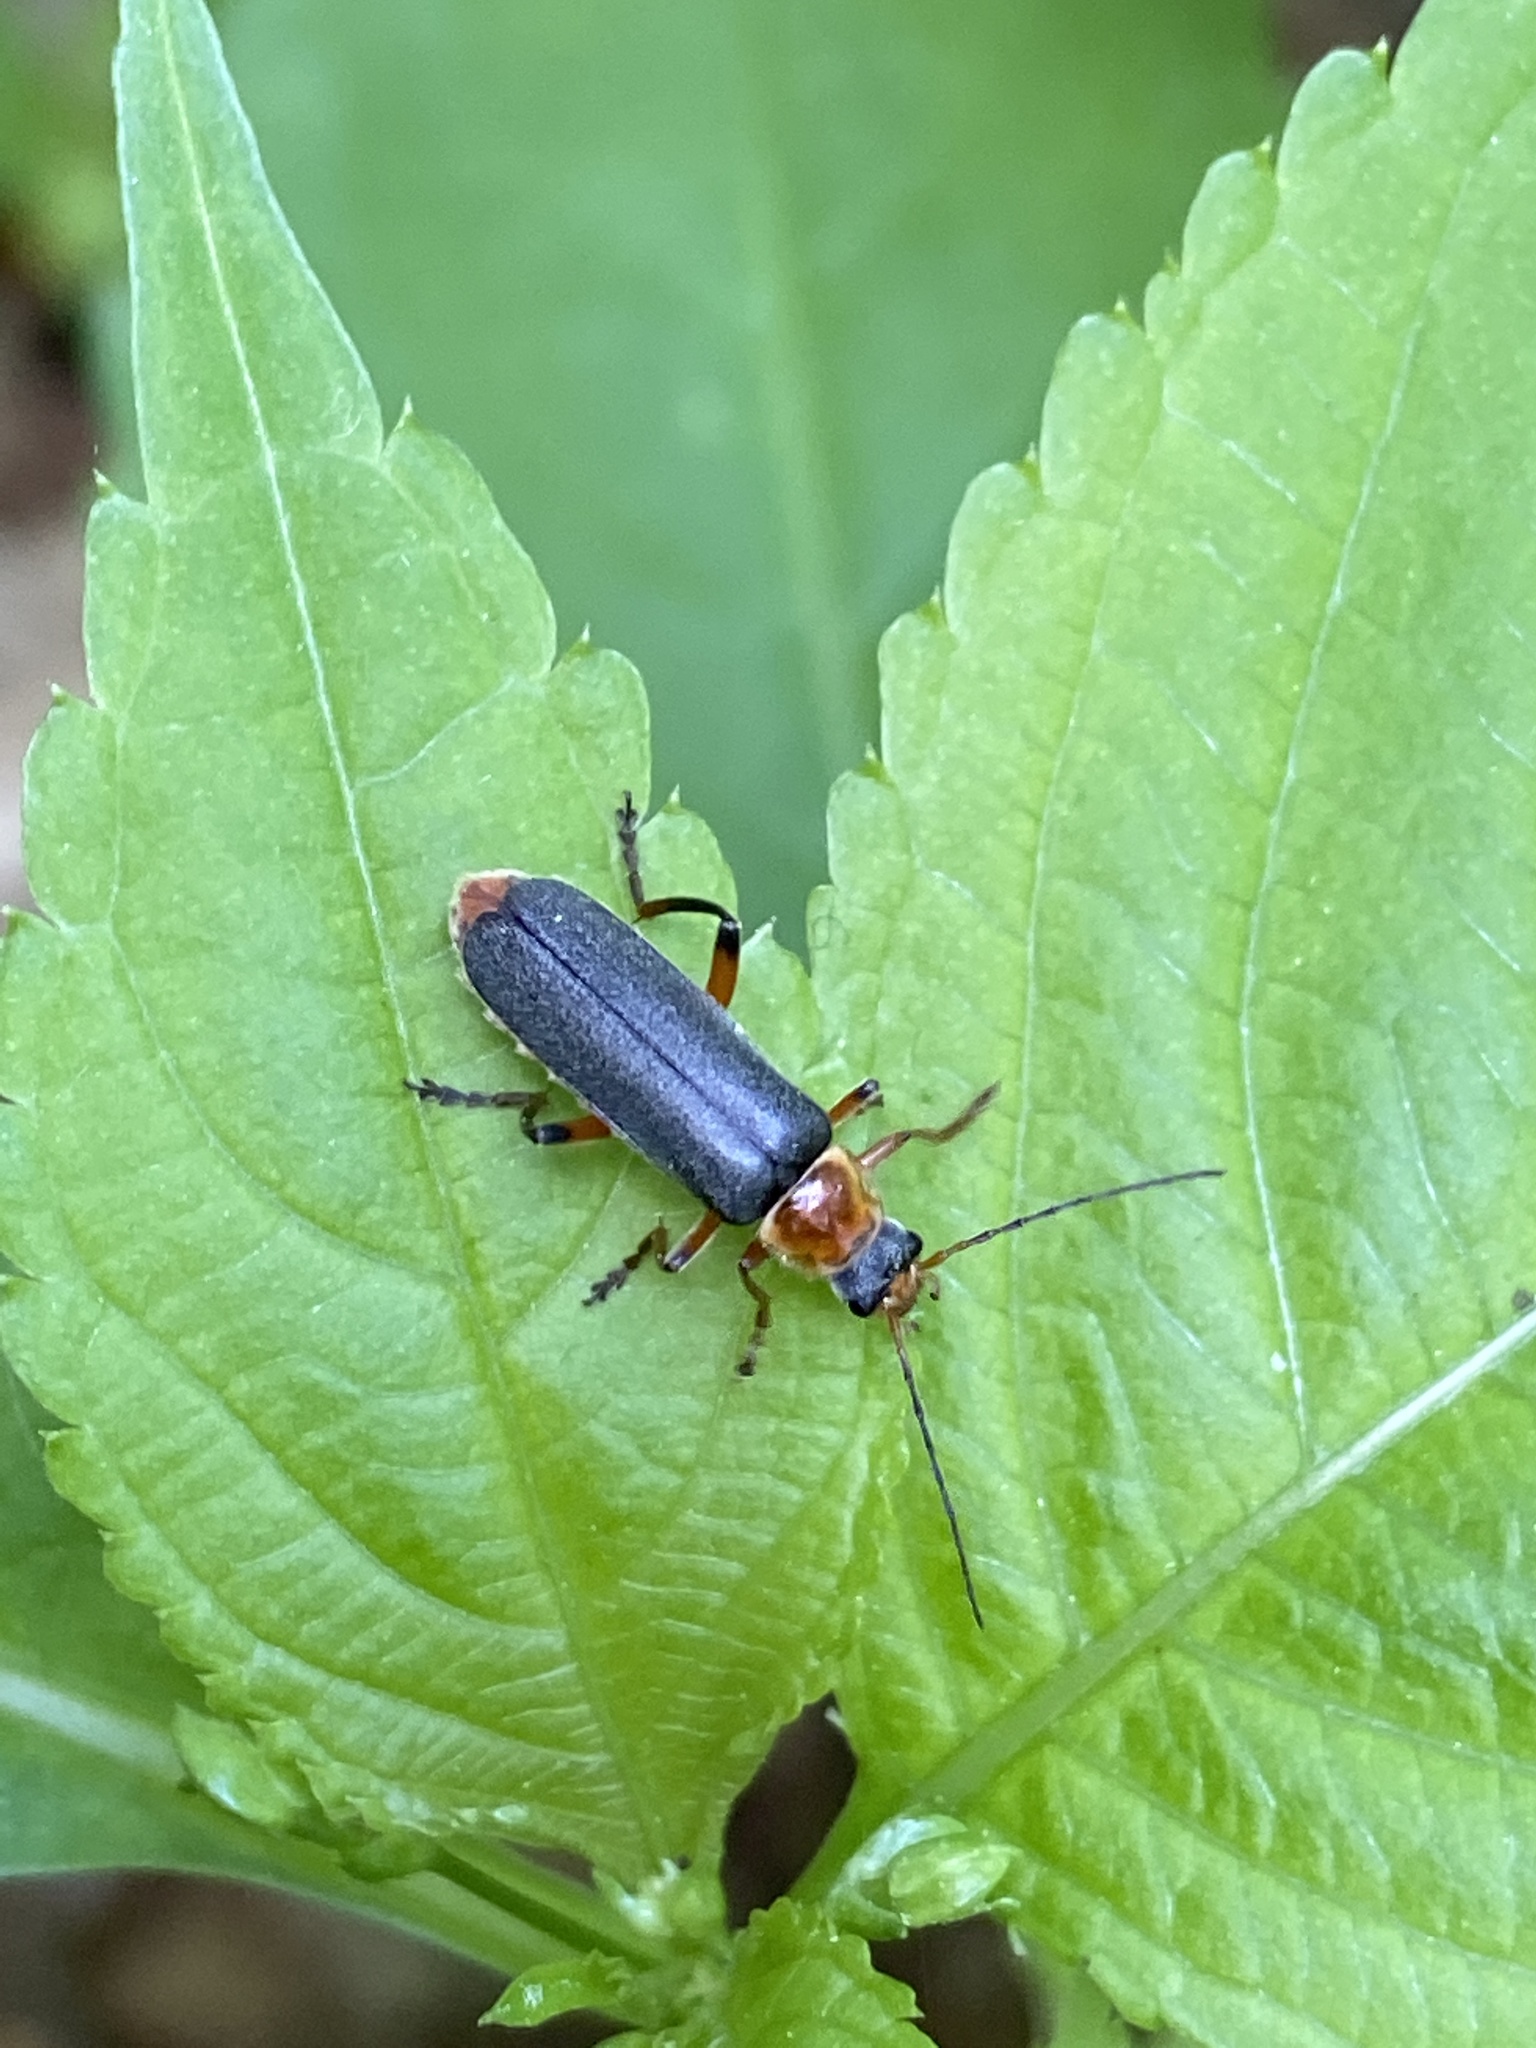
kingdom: Animalia
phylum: Arthropoda
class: Insecta
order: Coleoptera
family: Cantharidae
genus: Cantharis
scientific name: Cantharis nigricans
